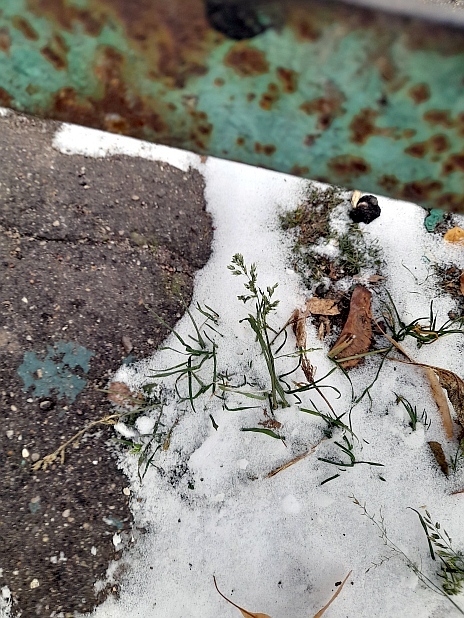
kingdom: Plantae
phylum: Tracheophyta
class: Liliopsida
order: Poales
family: Poaceae
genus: Poa
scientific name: Poa annua
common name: Annual bluegrass
